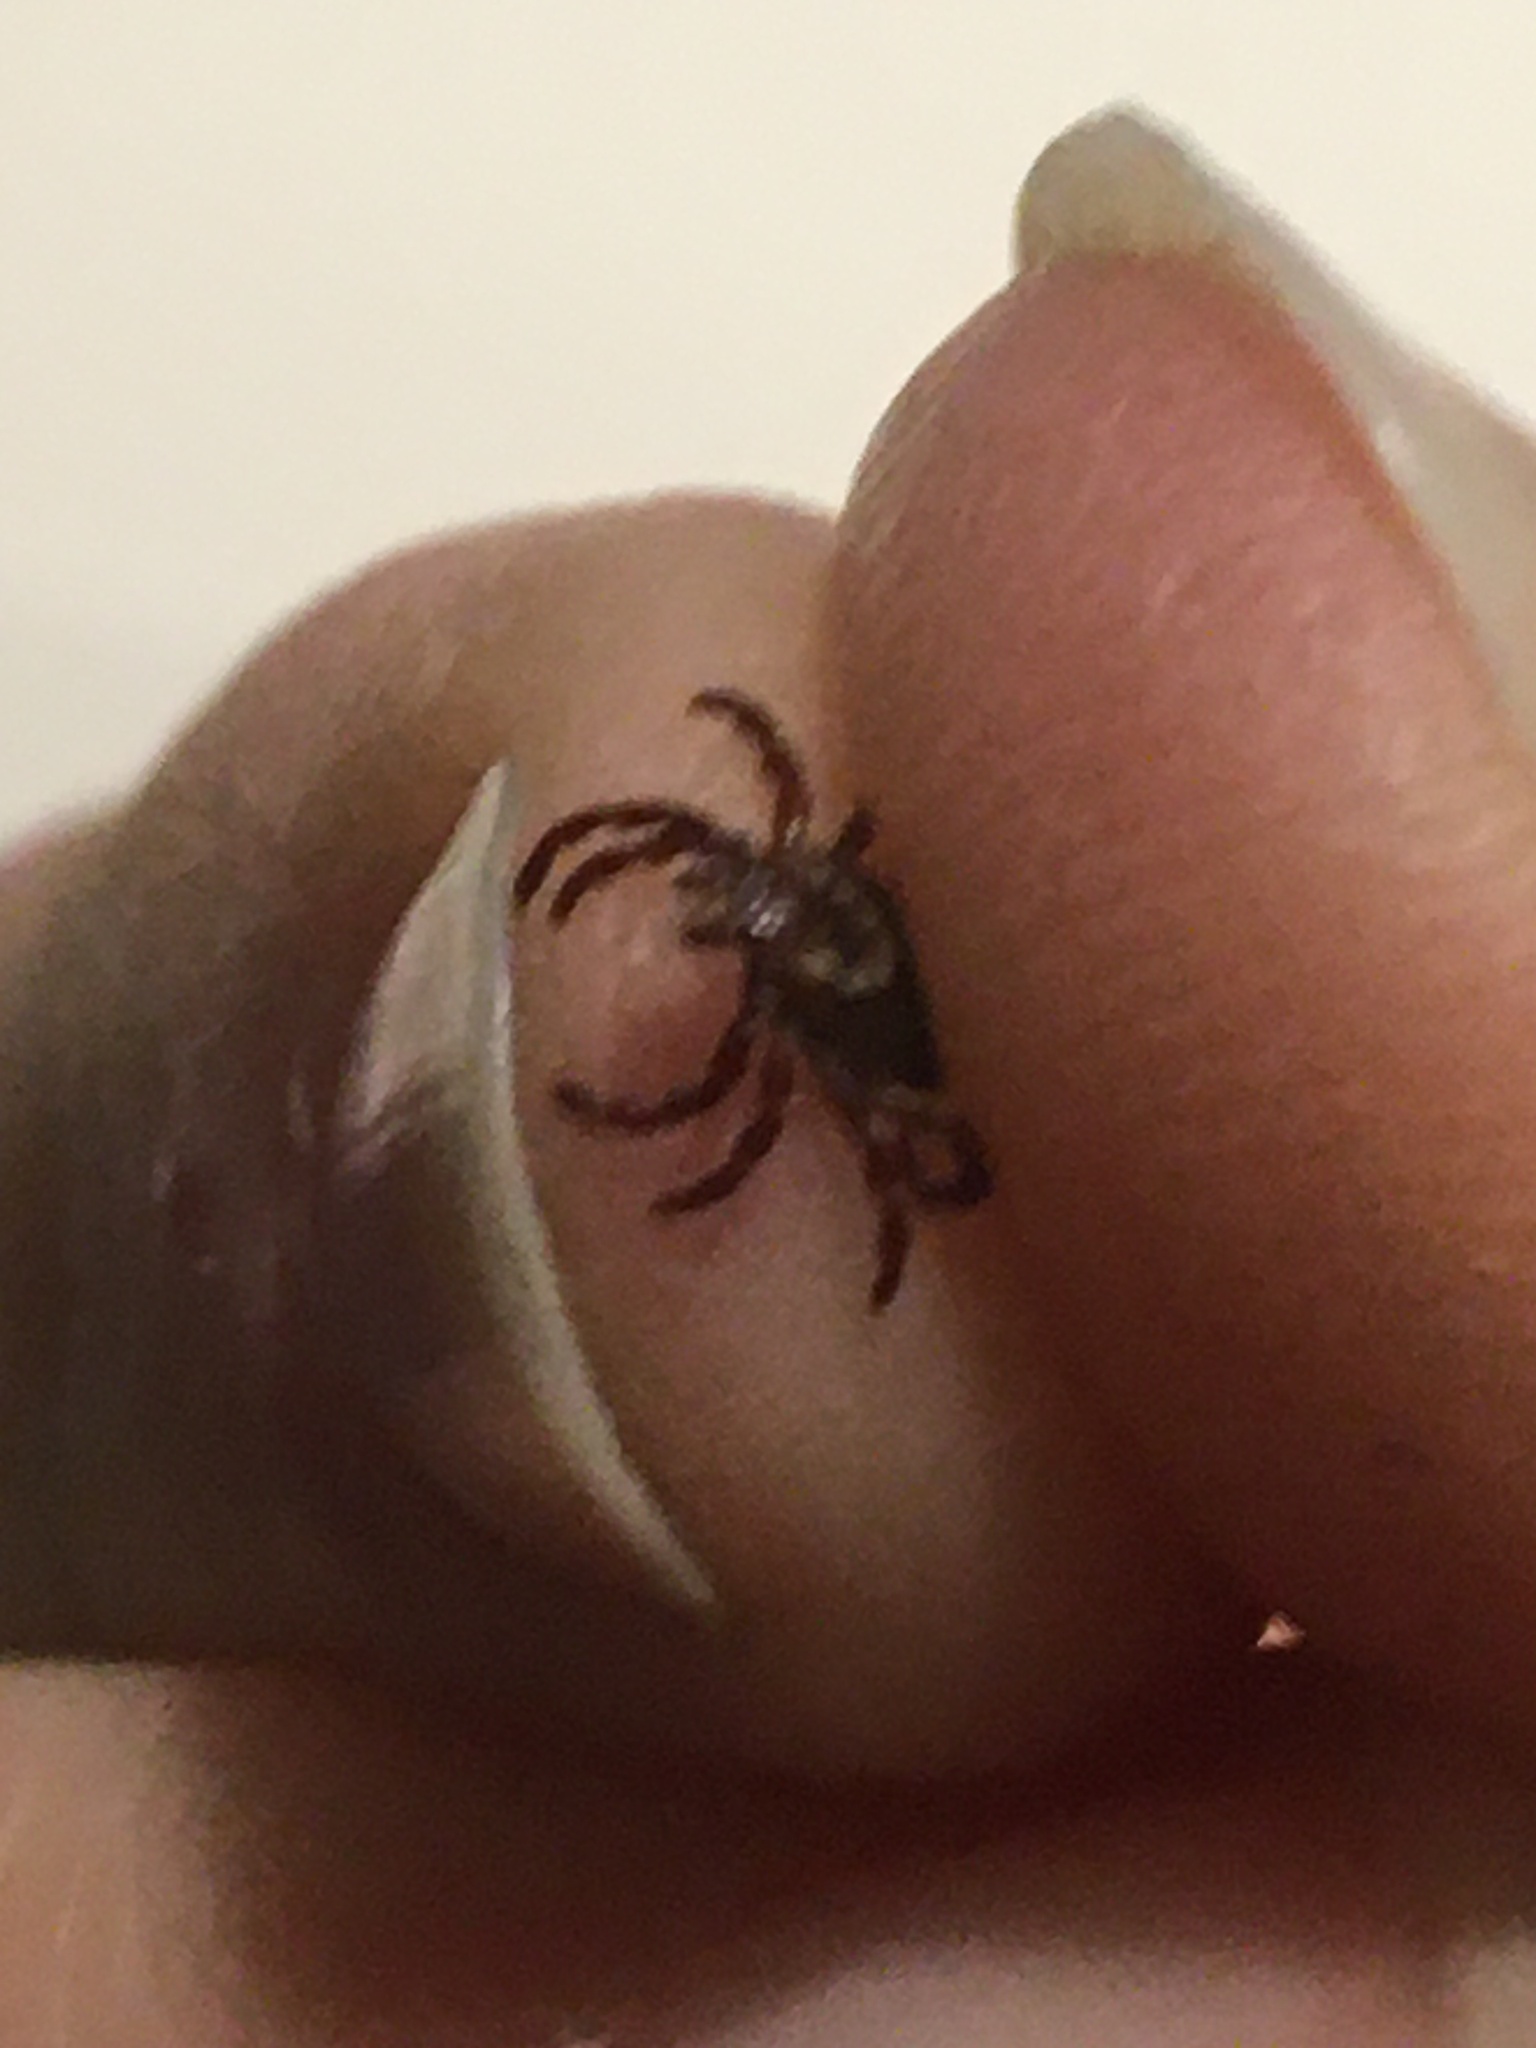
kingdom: Animalia
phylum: Arthropoda
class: Arachnida
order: Ixodida
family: Ixodidae
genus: Dermacentor
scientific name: Dermacentor variabilis
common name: American dog tick
